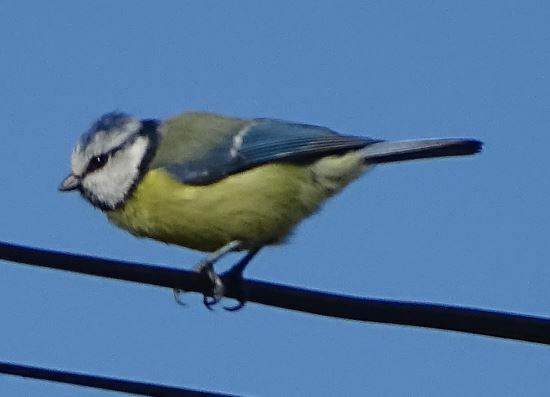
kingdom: Animalia
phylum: Chordata
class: Aves
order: Passeriformes
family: Paridae
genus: Cyanistes
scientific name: Cyanistes caeruleus
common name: Eurasian blue tit
